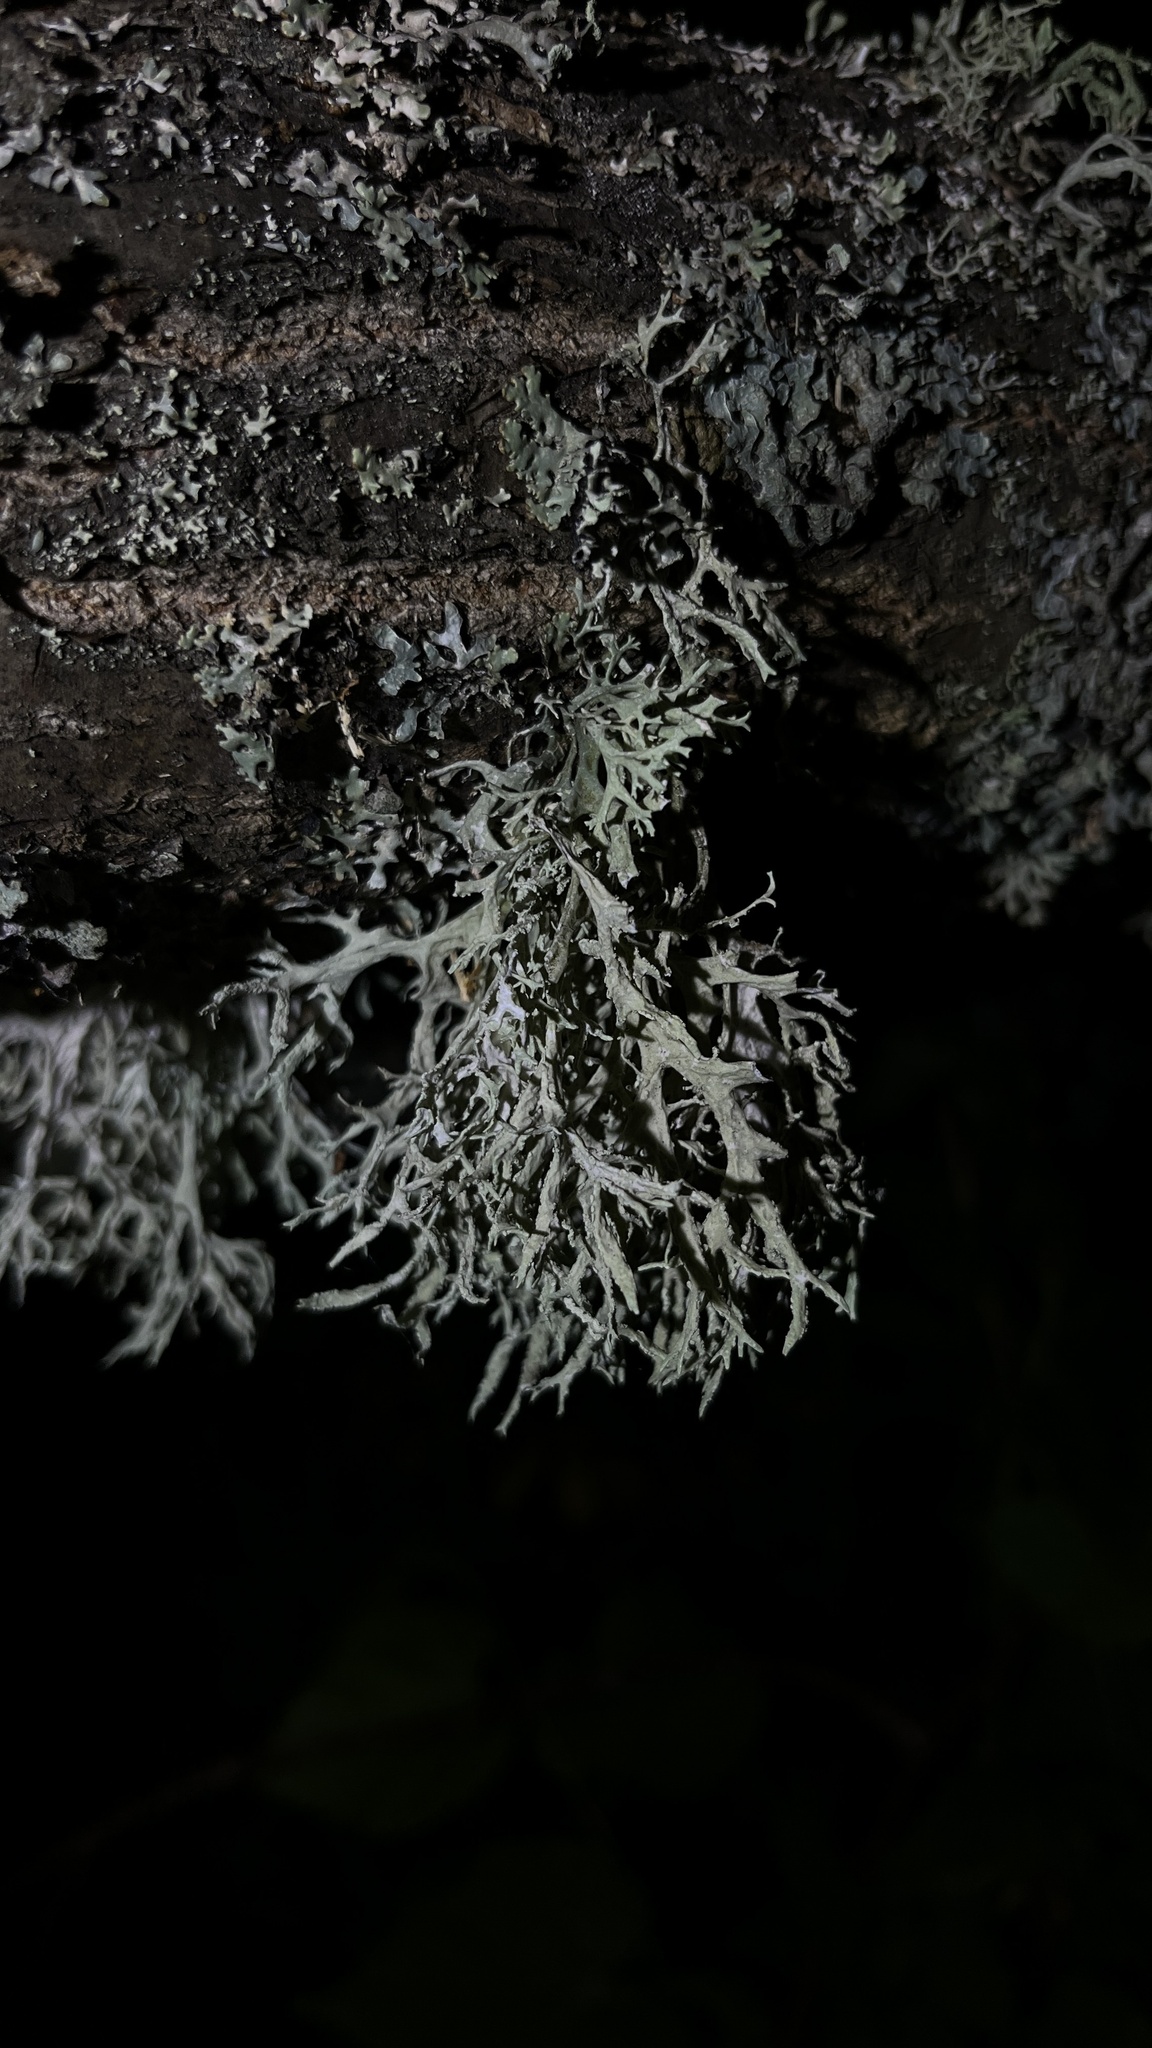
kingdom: Fungi
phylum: Ascomycota
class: Lecanoromycetes
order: Lecanorales
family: Parmeliaceae
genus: Evernia
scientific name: Evernia prunastri
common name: Oak moss
